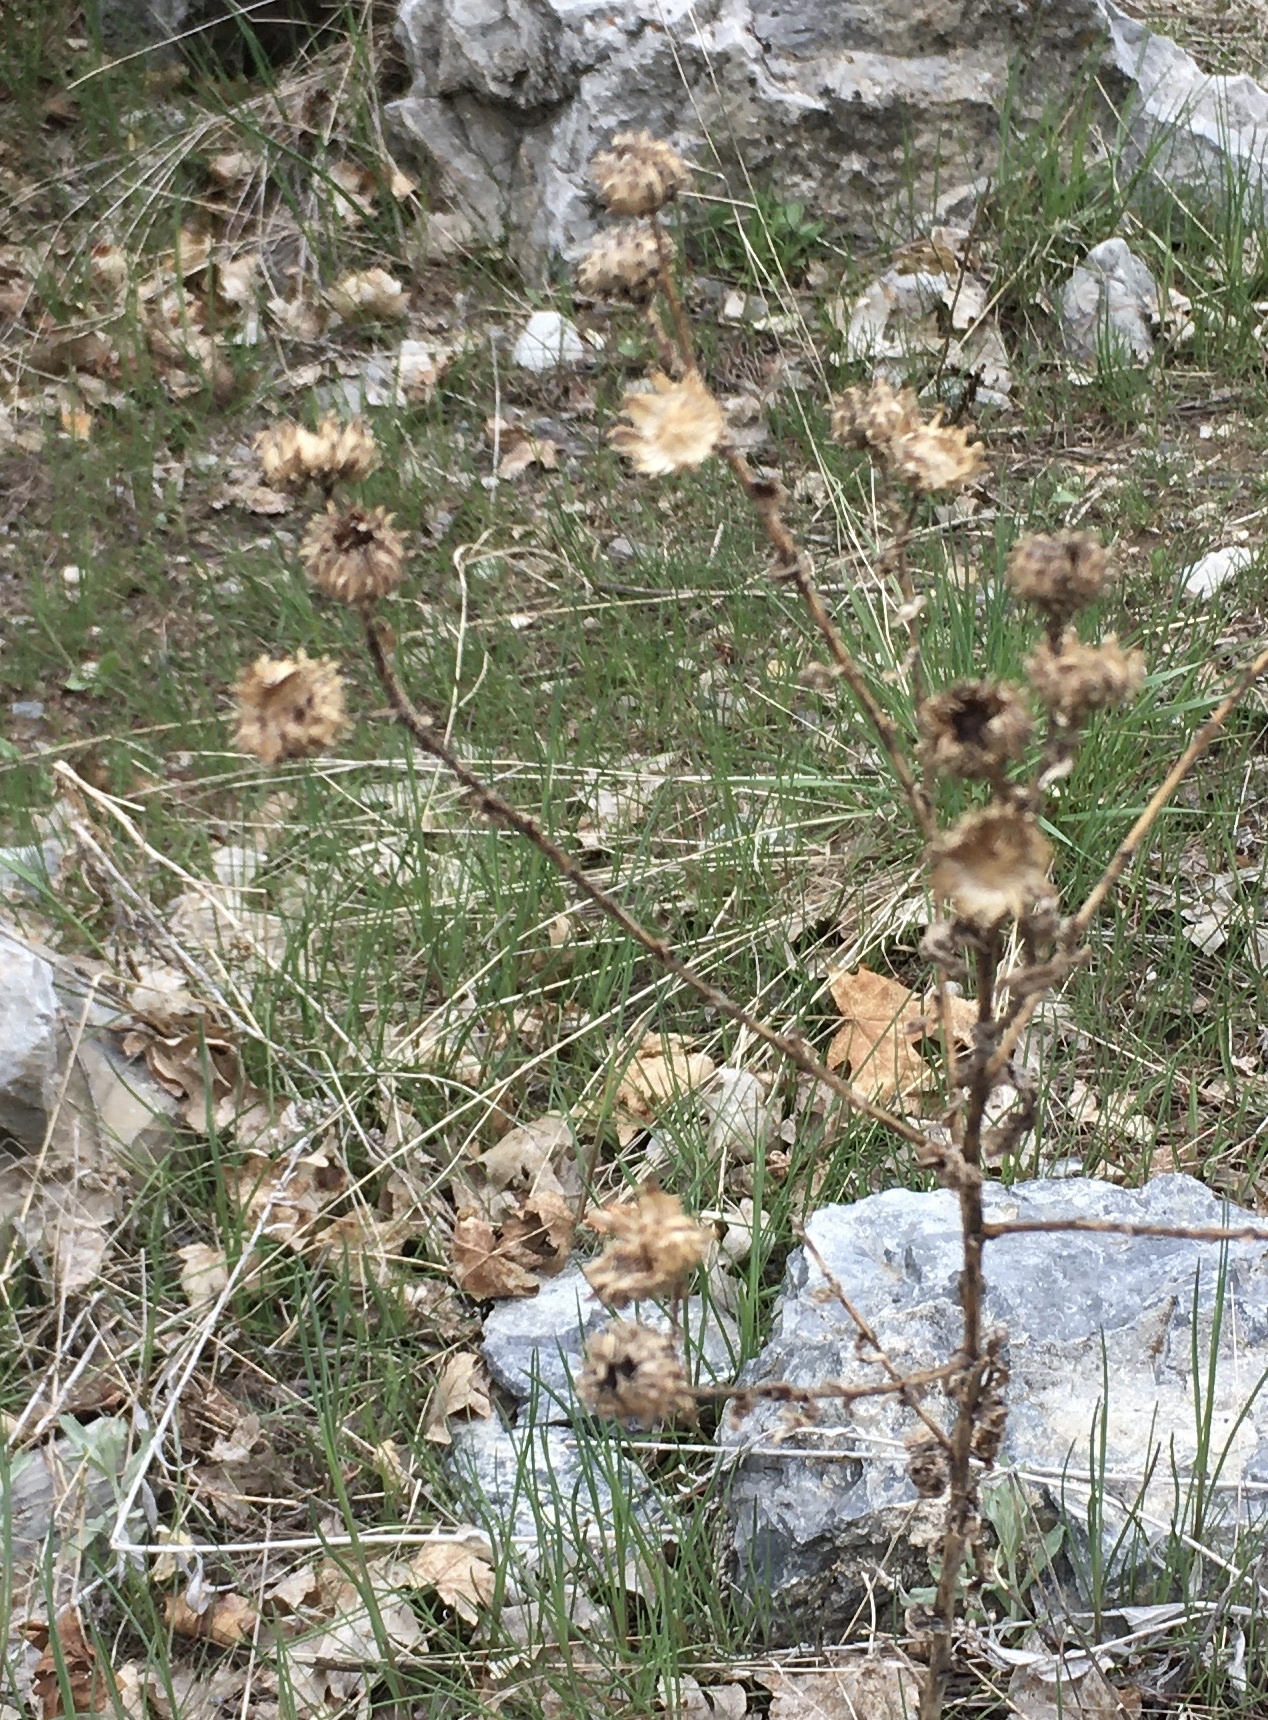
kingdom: Plantae
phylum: Tracheophyta
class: Magnoliopsida
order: Asterales
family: Asteraceae
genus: Grindelia
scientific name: Grindelia squarrosa
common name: Curly-cup gumweed
